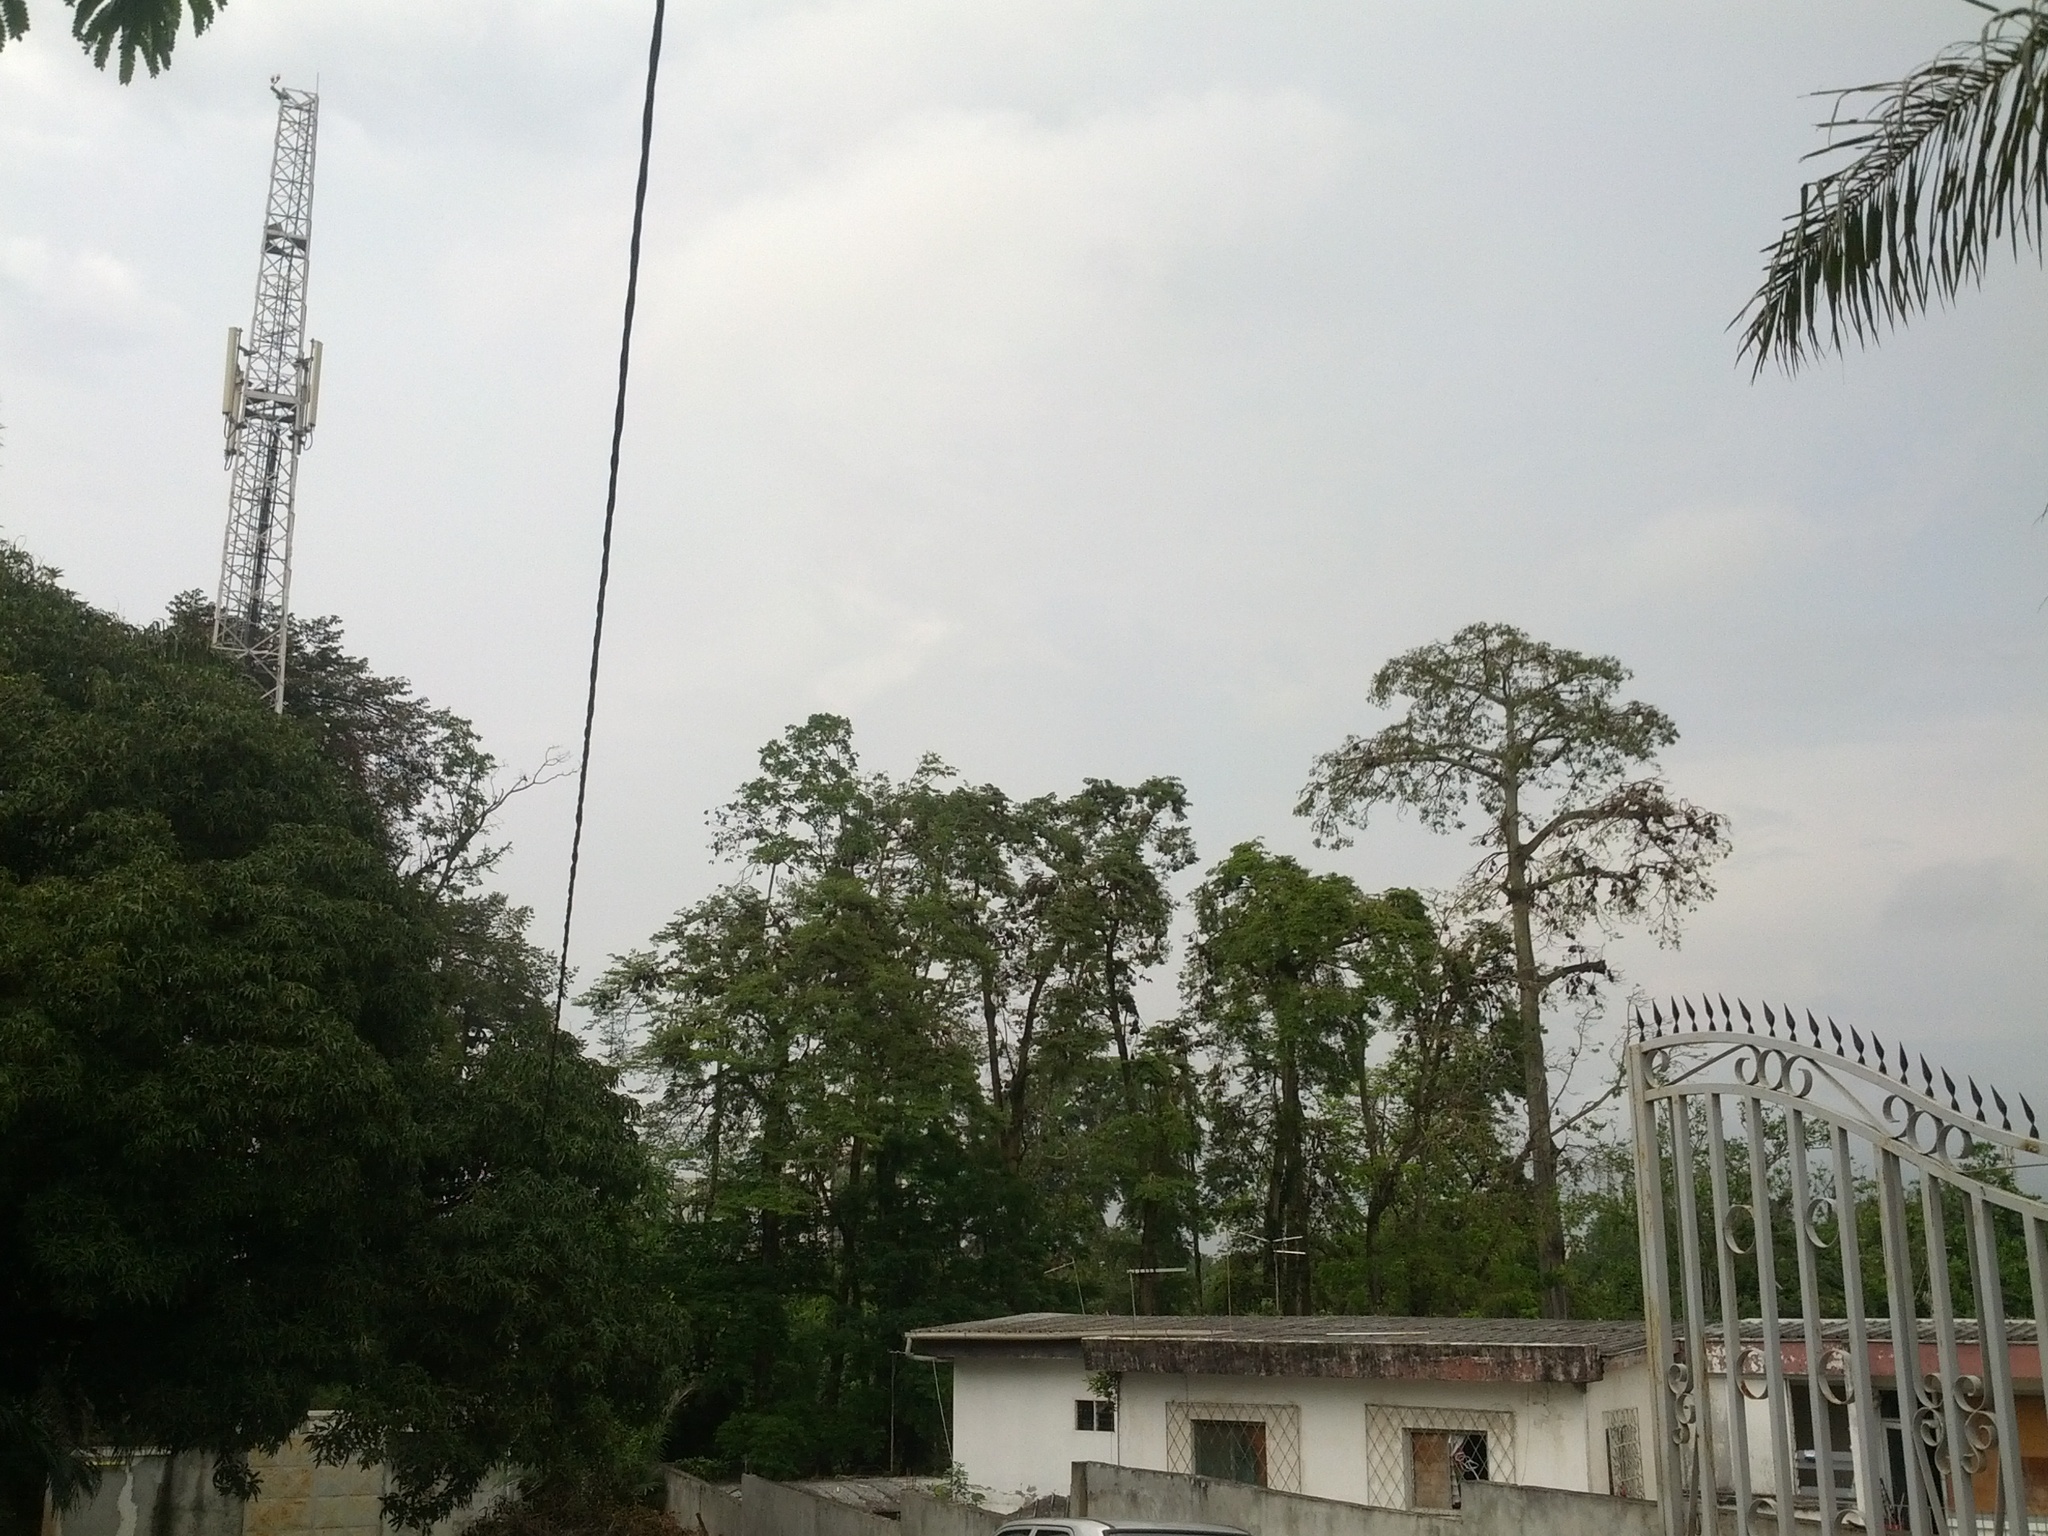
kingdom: Animalia
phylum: Chordata
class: Mammalia
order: Chiroptera
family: Pteropodidae
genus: Eidolon
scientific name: Eidolon helvum
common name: Straw-colored fruit bat
